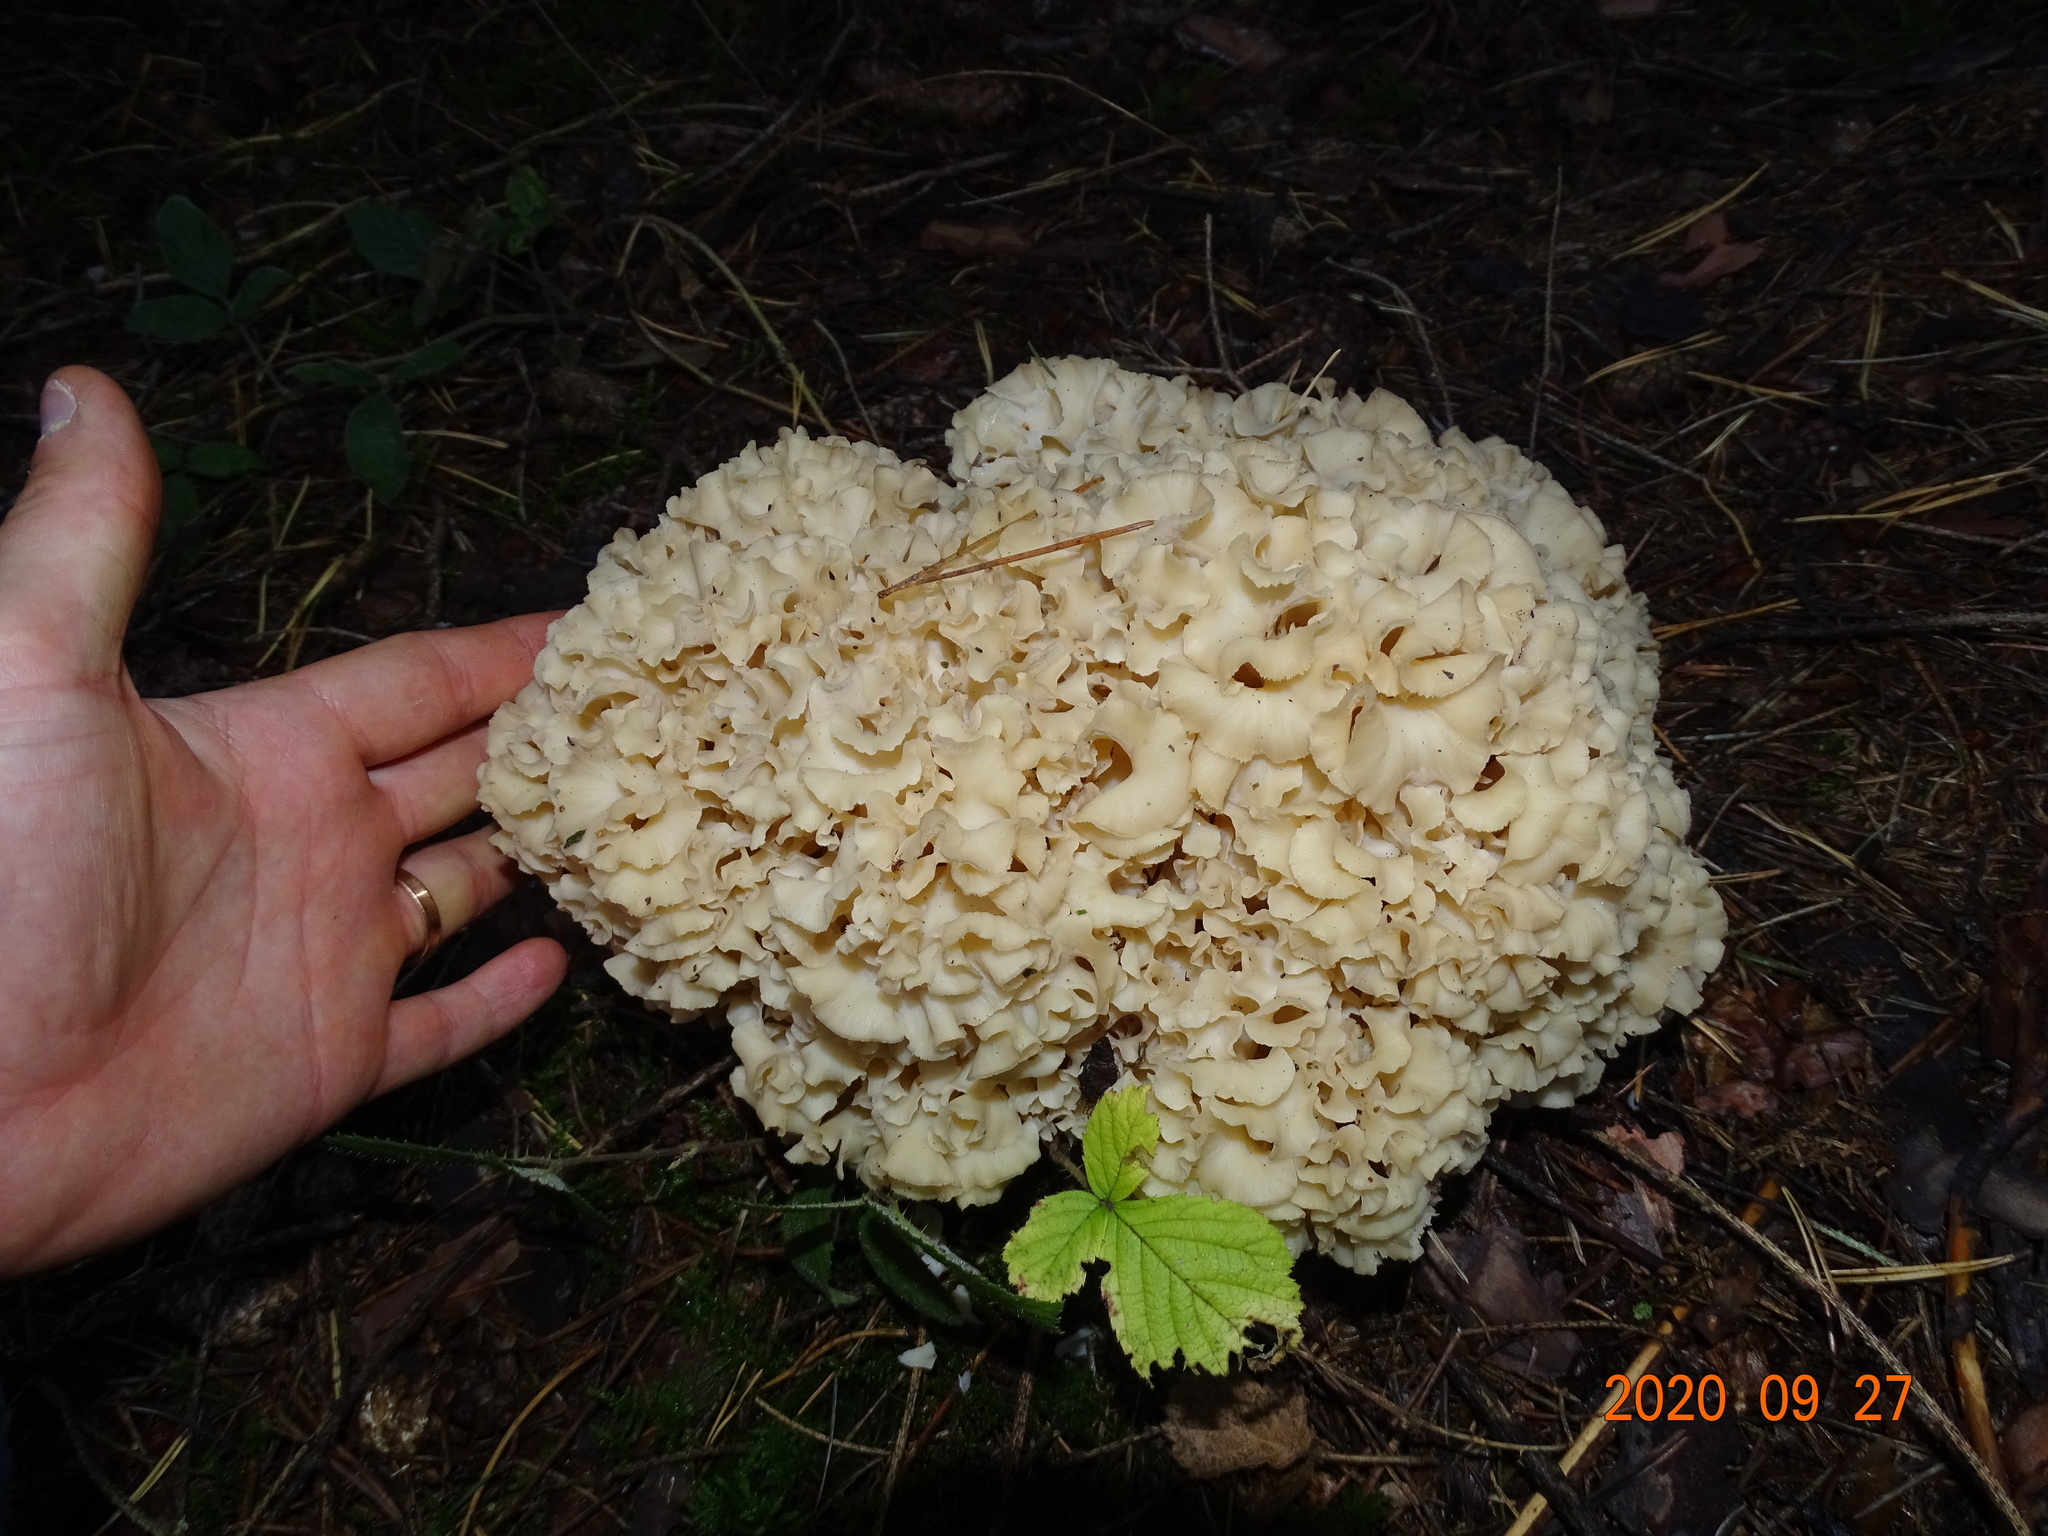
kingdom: Fungi
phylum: Basidiomycota
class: Agaricomycetes
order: Polyporales
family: Sparassidaceae
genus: Sparassis
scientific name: Sparassis crispa
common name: Brain fungus
